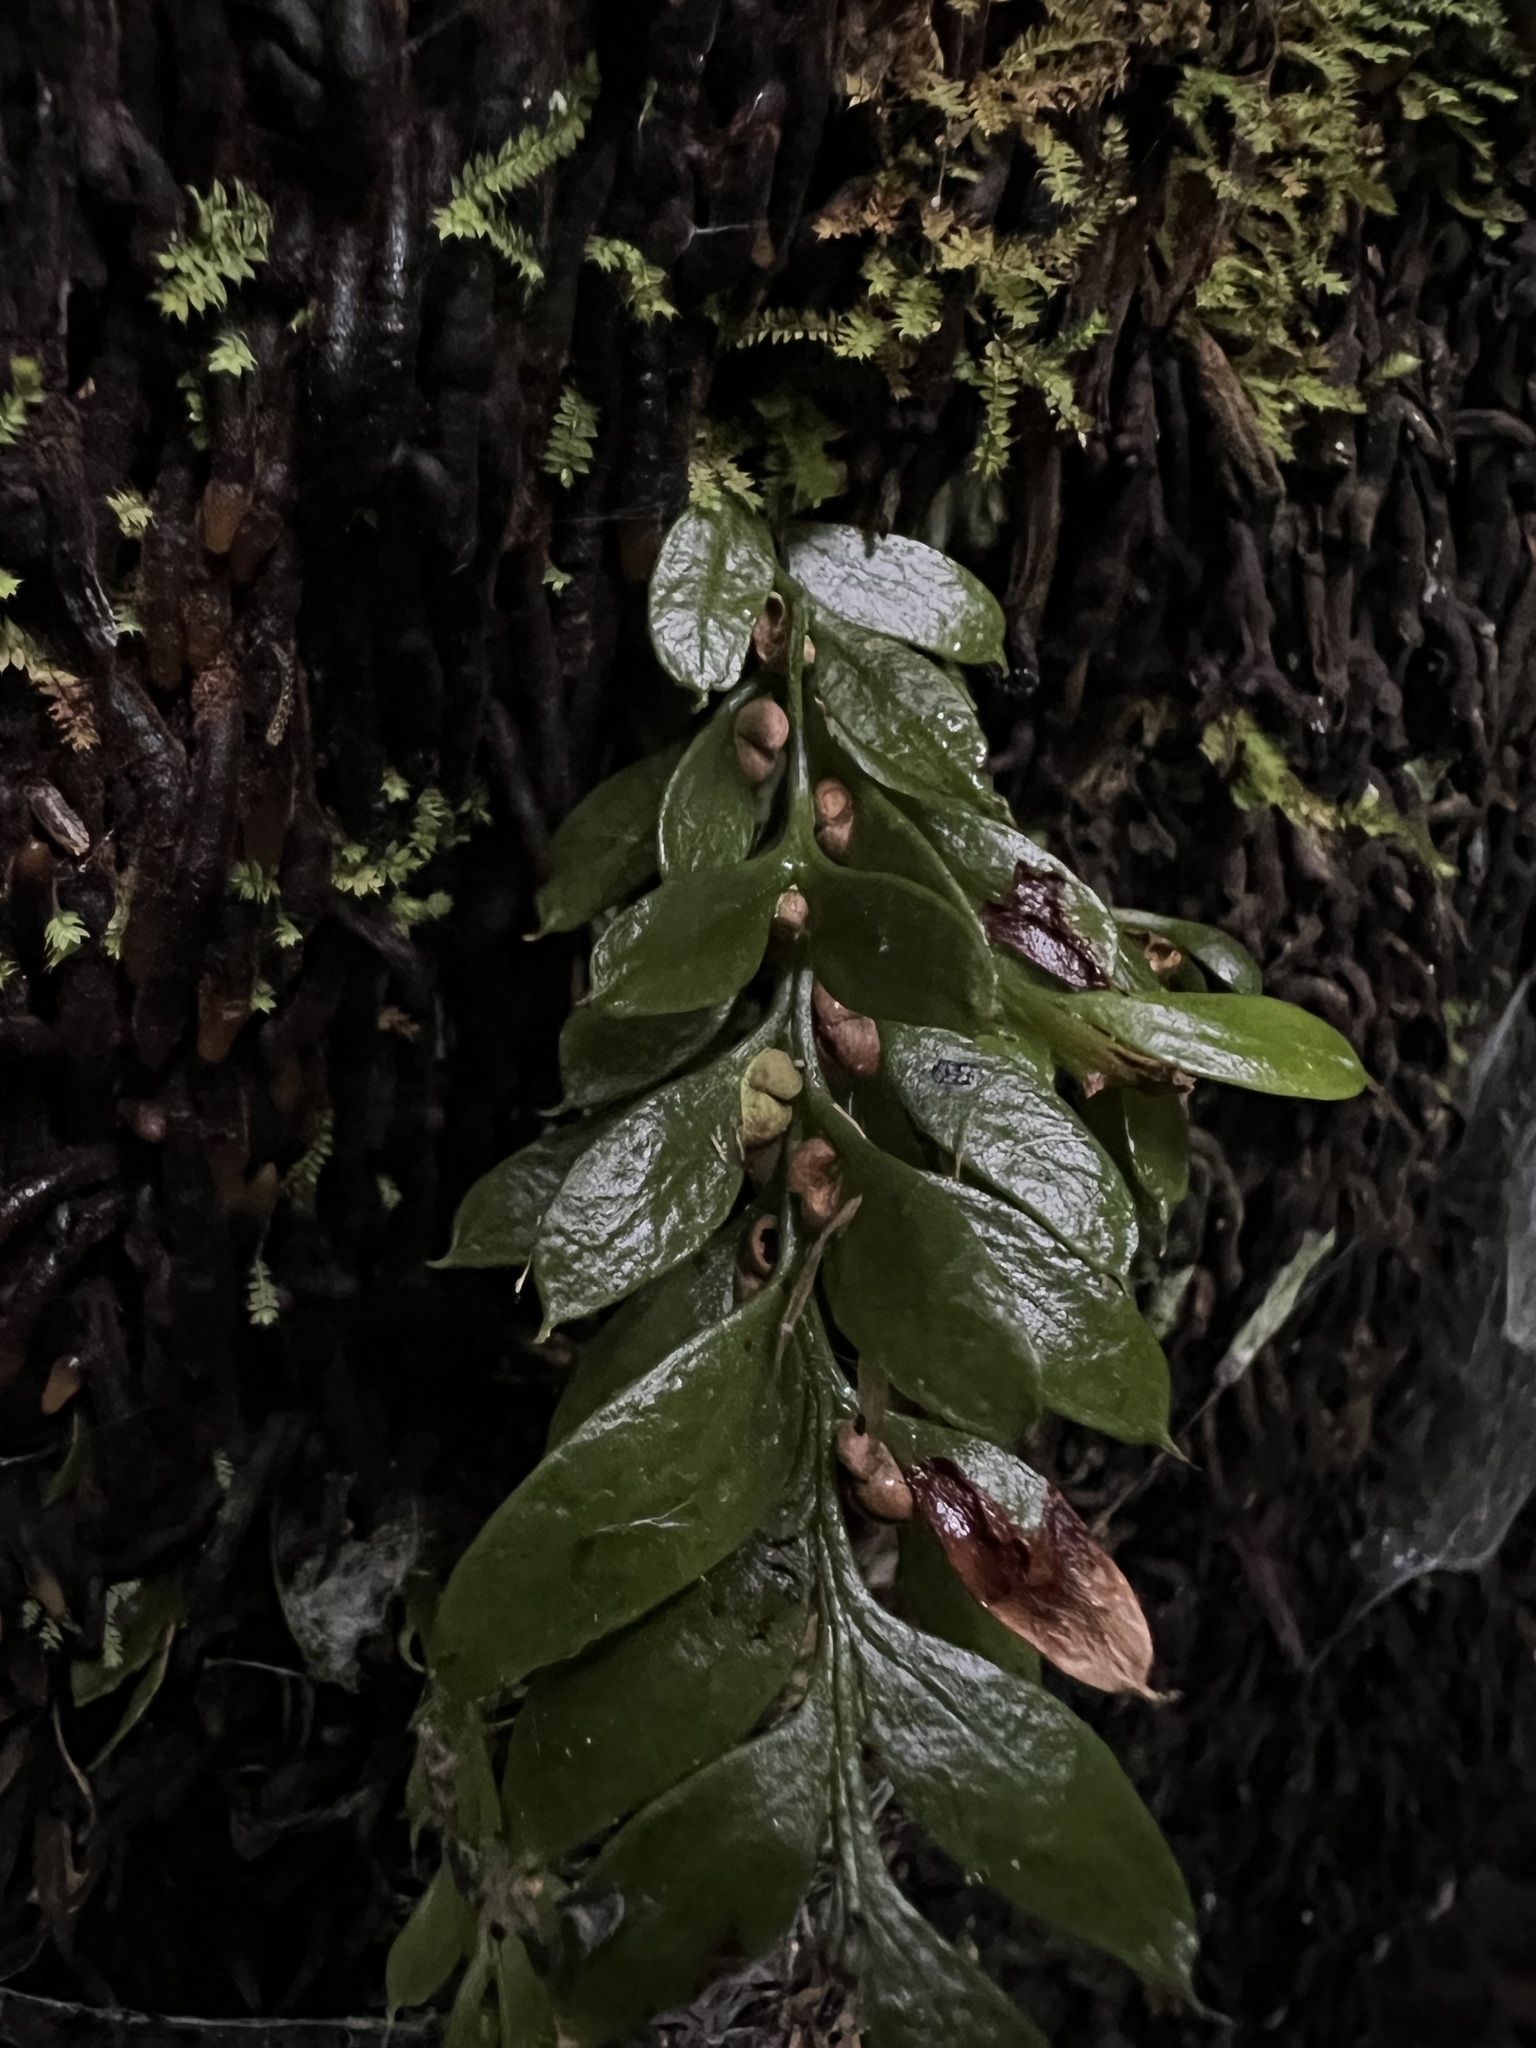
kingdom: Plantae
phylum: Tracheophyta
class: Polypodiopsida
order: Psilotales
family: Psilotaceae
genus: Tmesipteris
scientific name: Tmesipteris lanceolata
